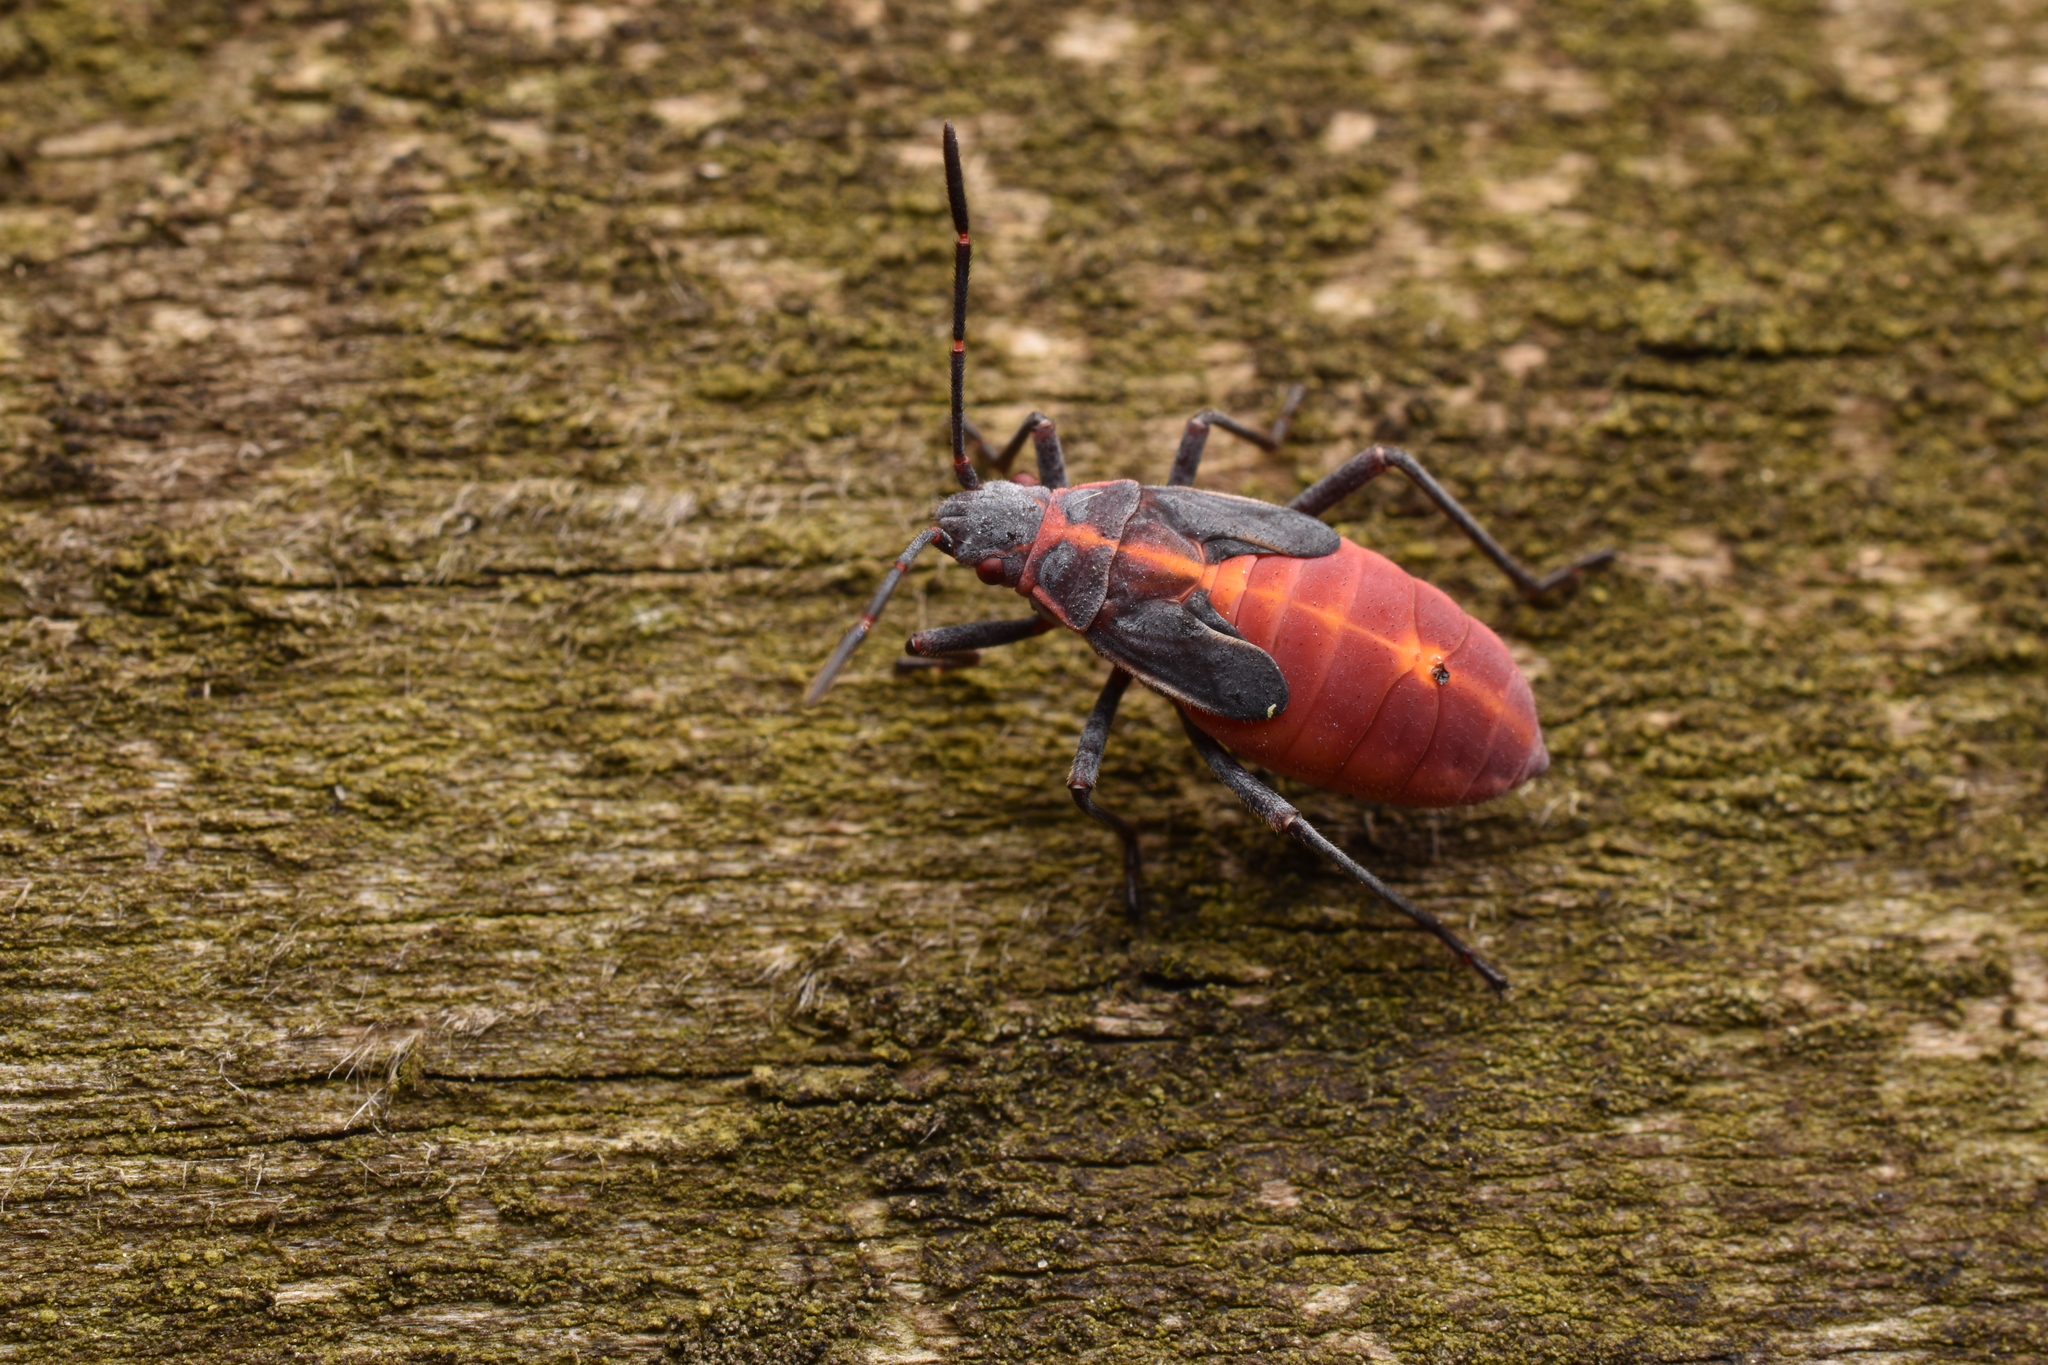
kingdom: Animalia
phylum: Arthropoda
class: Insecta
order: Hemiptera
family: Rhopalidae
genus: Boisea
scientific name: Boisea trivittata
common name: Boxelder bug
